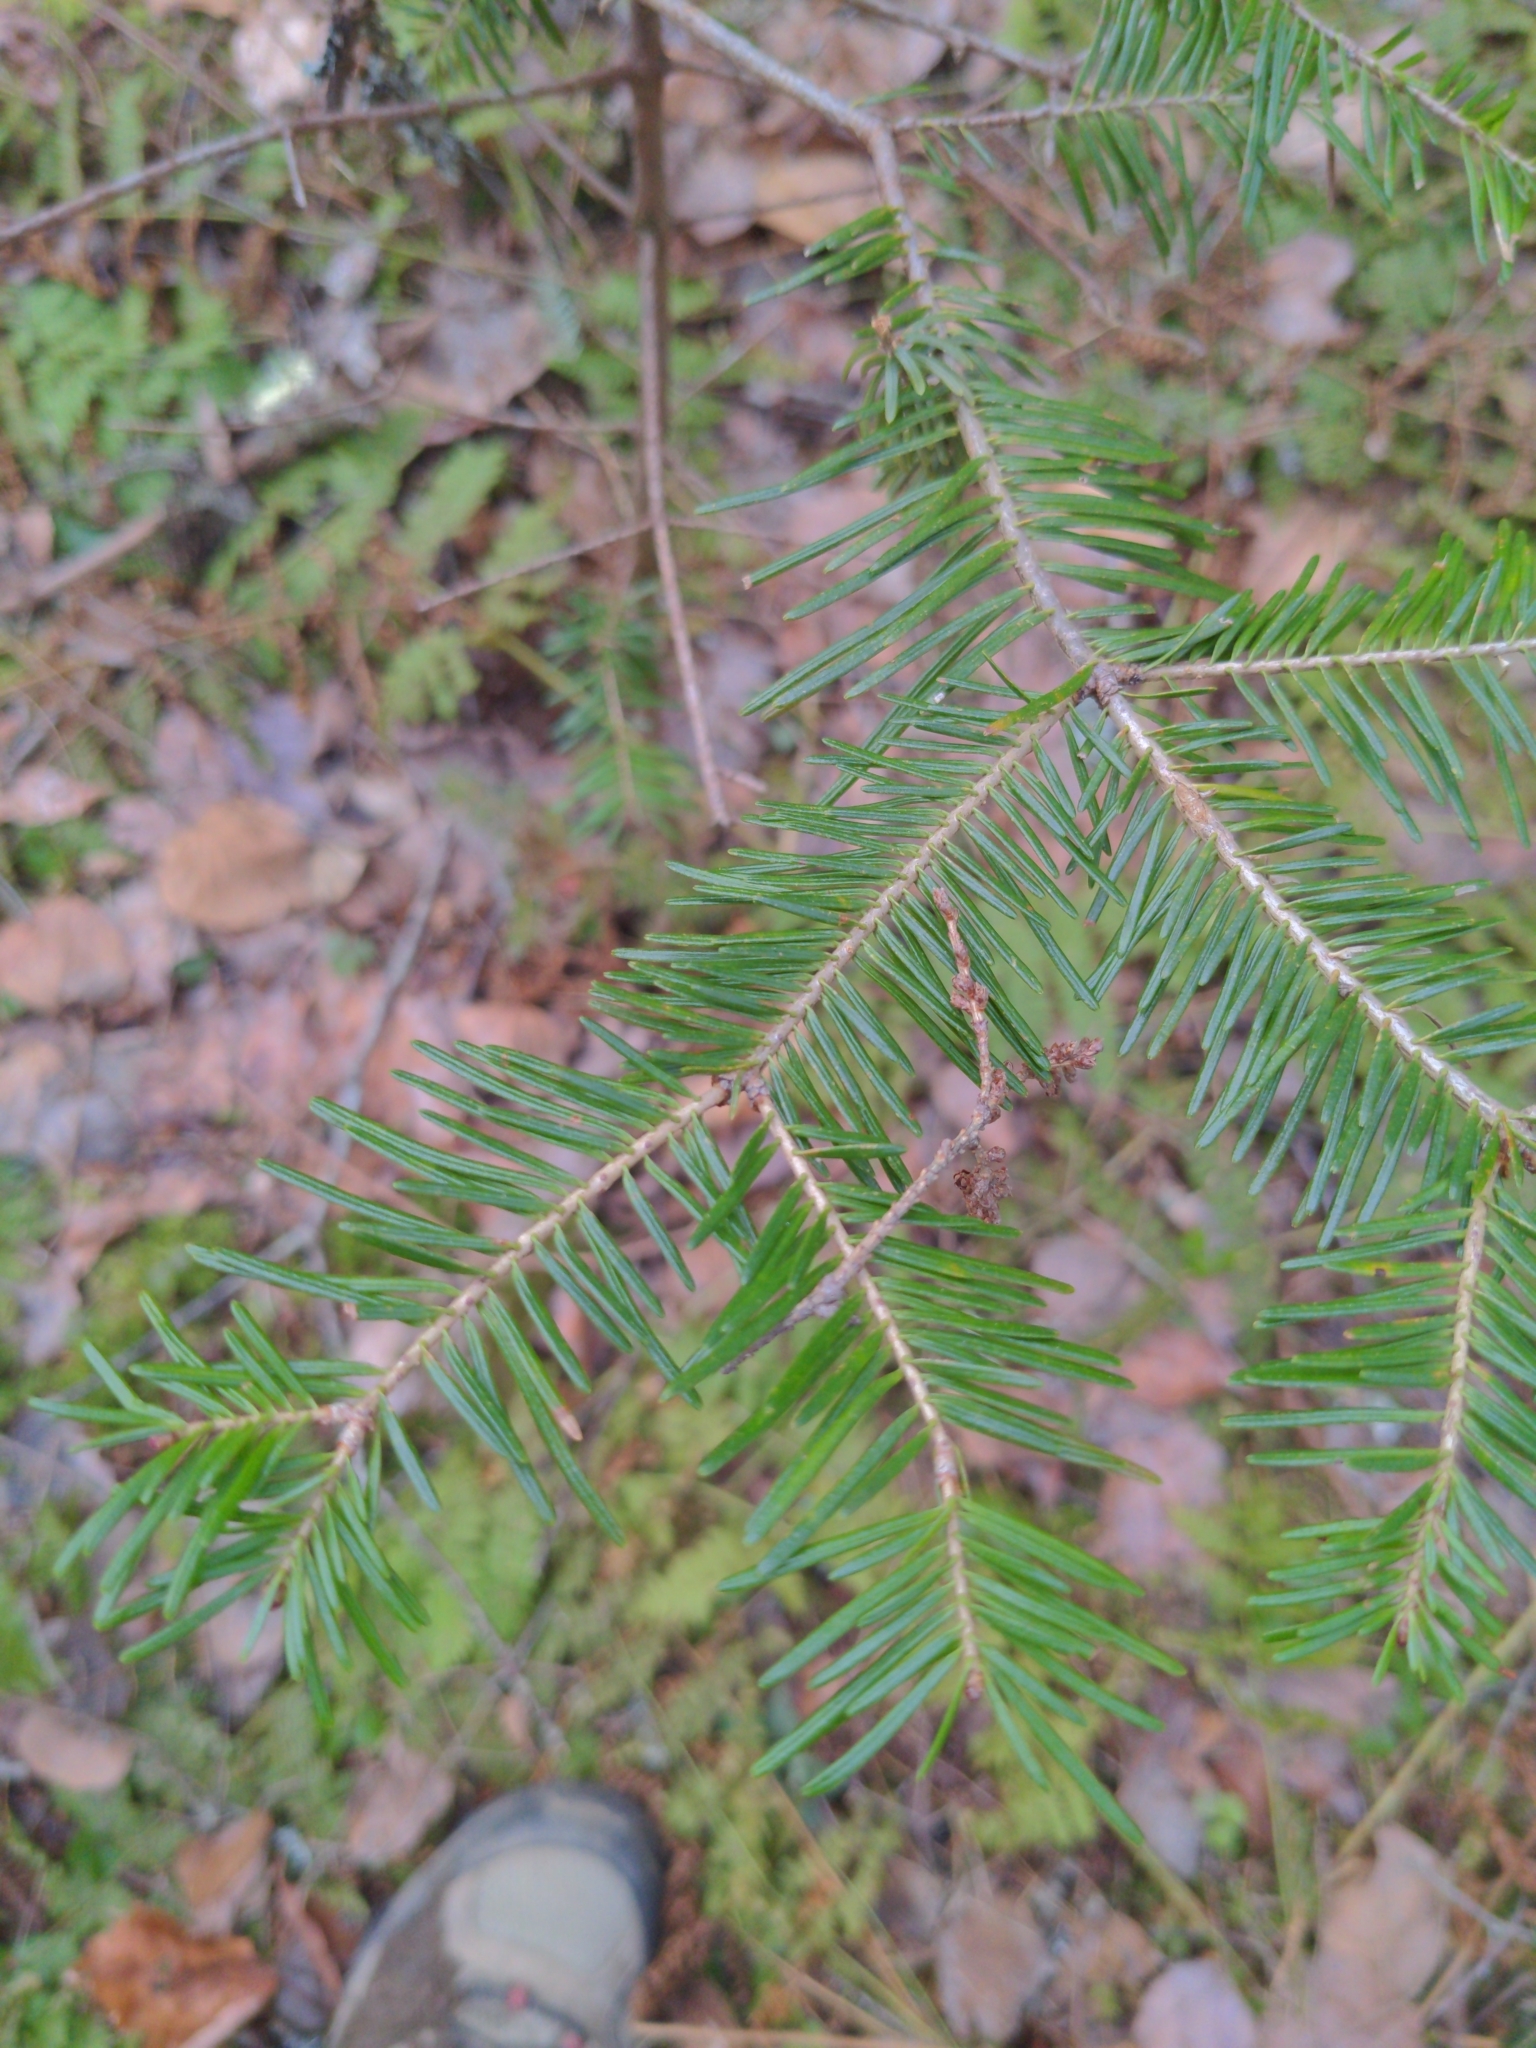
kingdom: Plantae
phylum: Tracheophyta
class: Pinopsida
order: Pinales
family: Pinaceae
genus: Abies
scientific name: Abies balsamea
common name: Balsam fir
